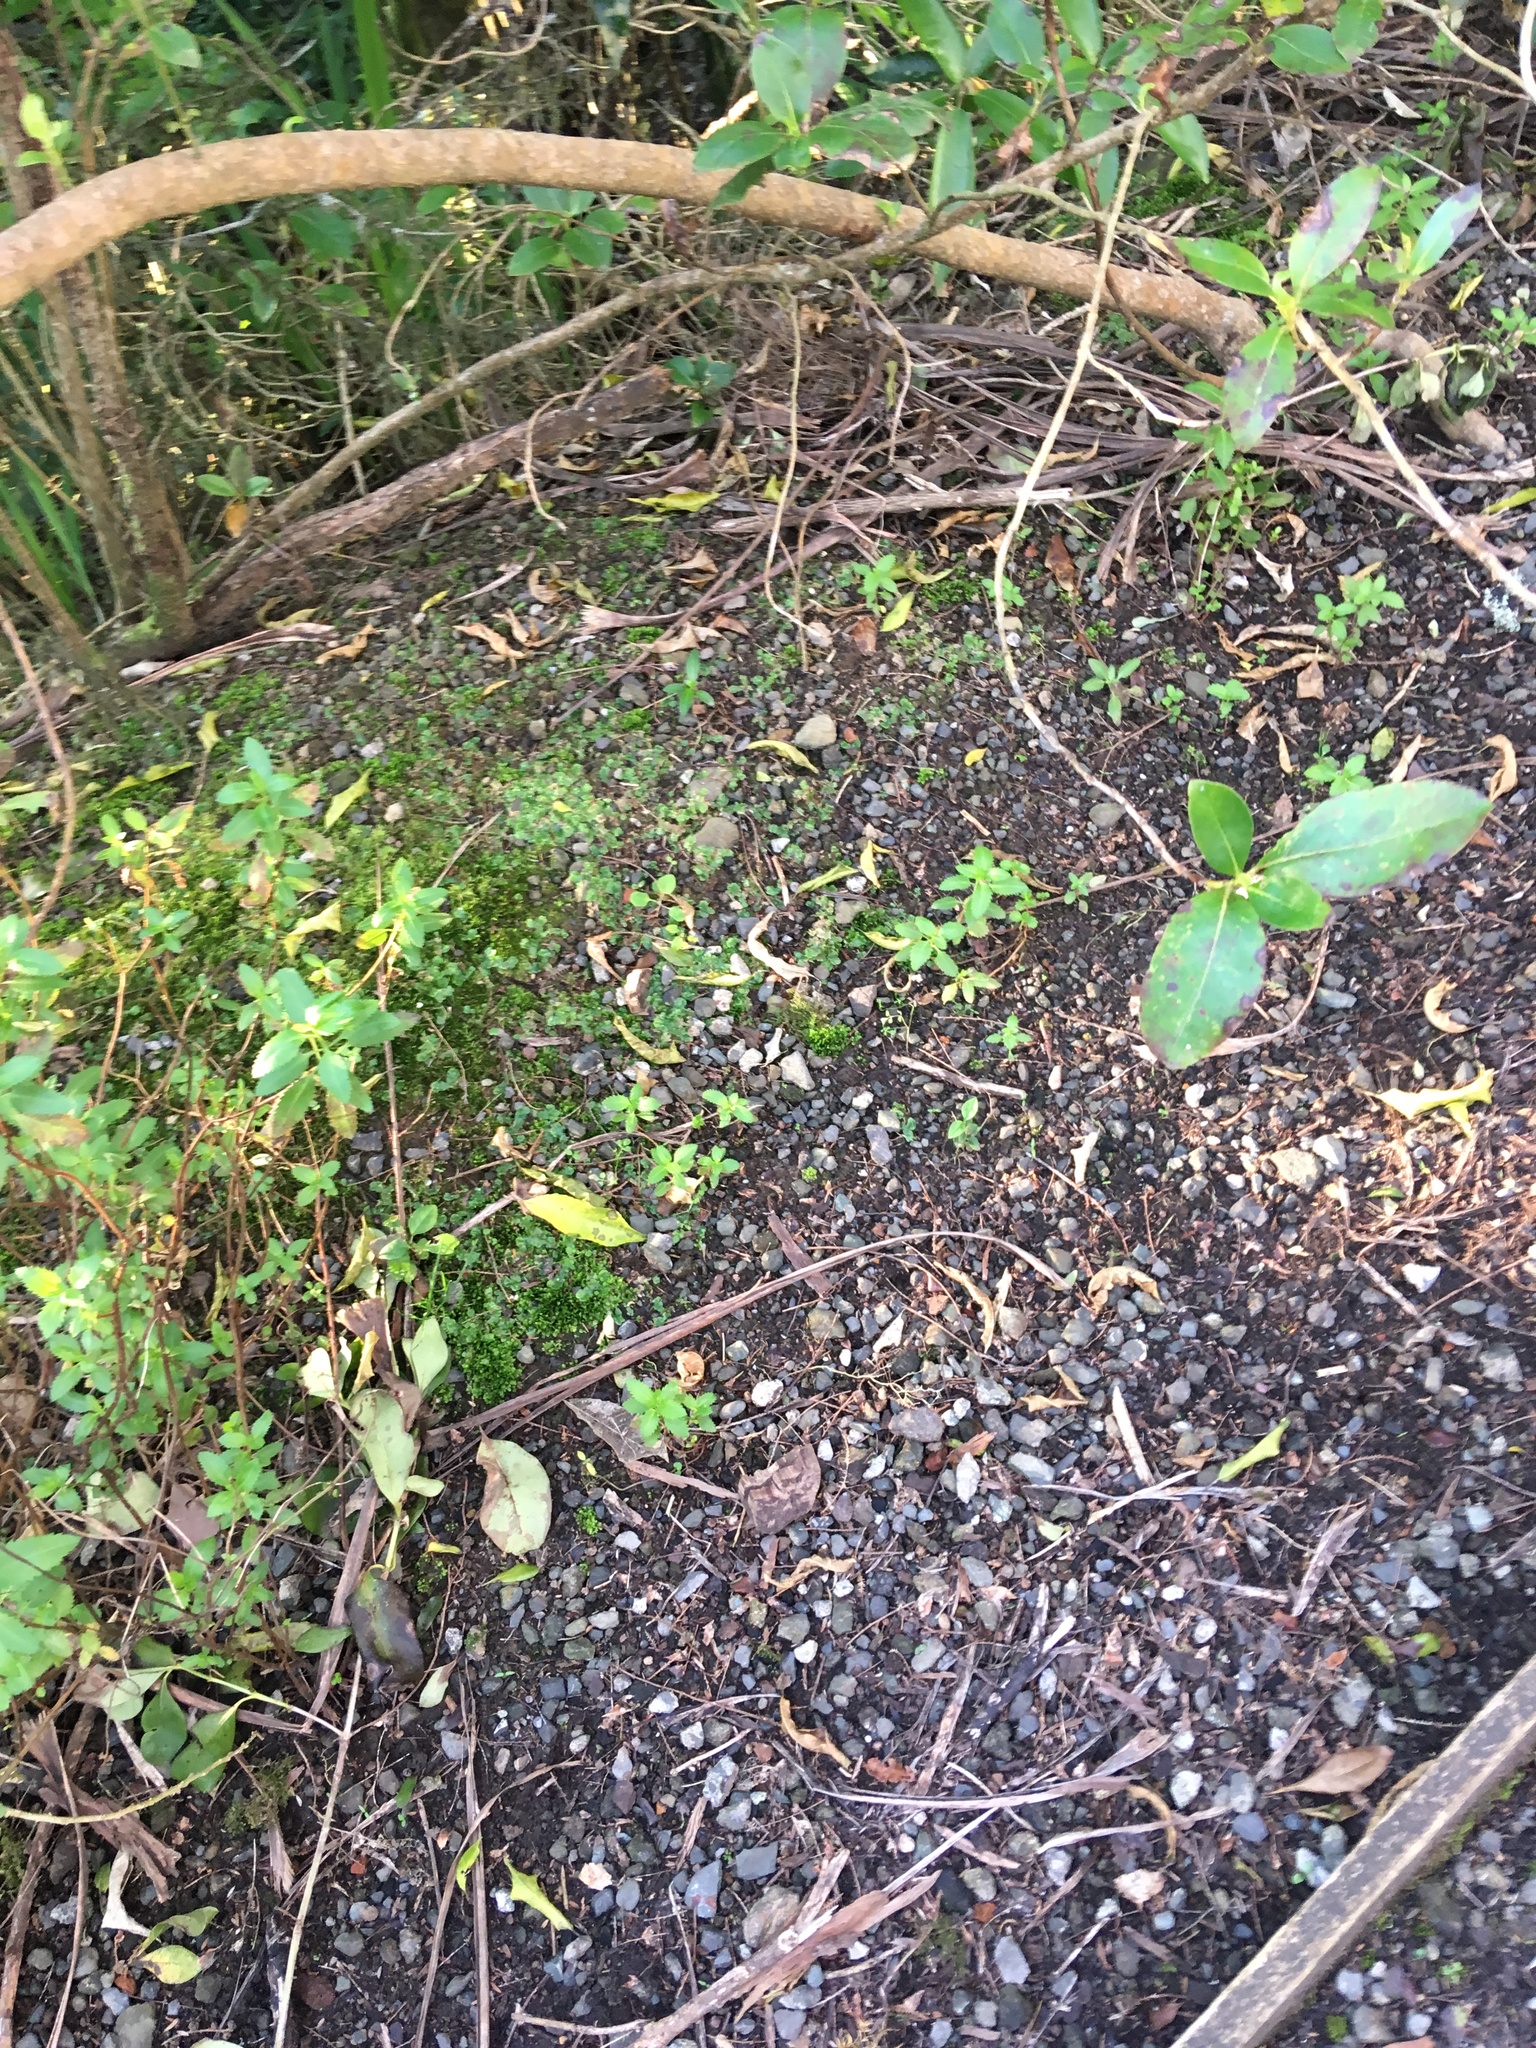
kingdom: Plantae
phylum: Tracheophyta
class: Magnoliopsida
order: Gentianales
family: Rubiaceae
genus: Coprosma
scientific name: Coprosma robusta
